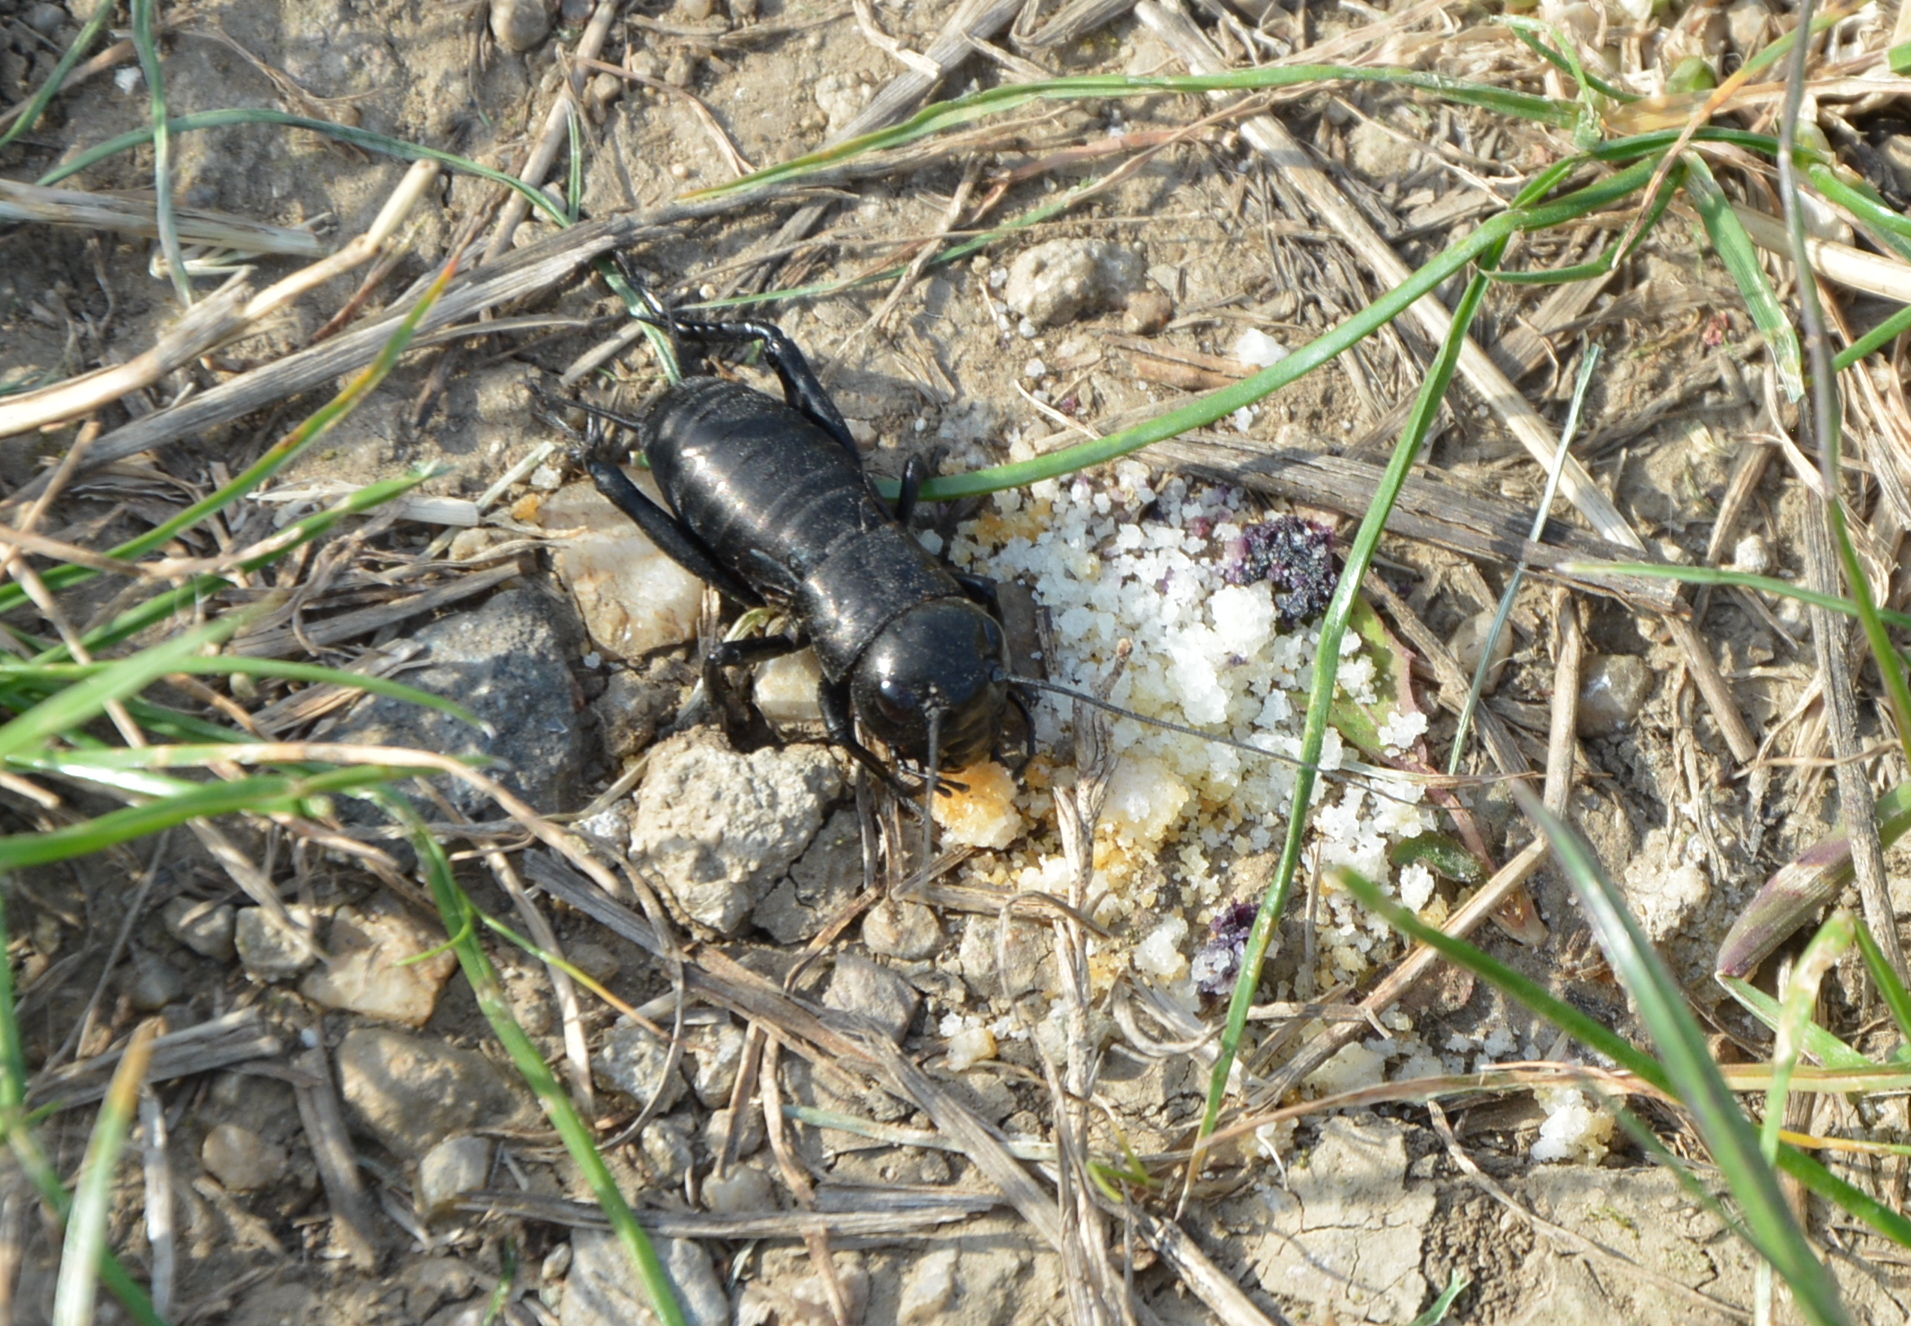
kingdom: Animalia
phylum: Arthropoda
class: Insecta
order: Orthoptera
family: Gryllidae
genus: Gryllus
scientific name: Gryllus campestris
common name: Field cricket
